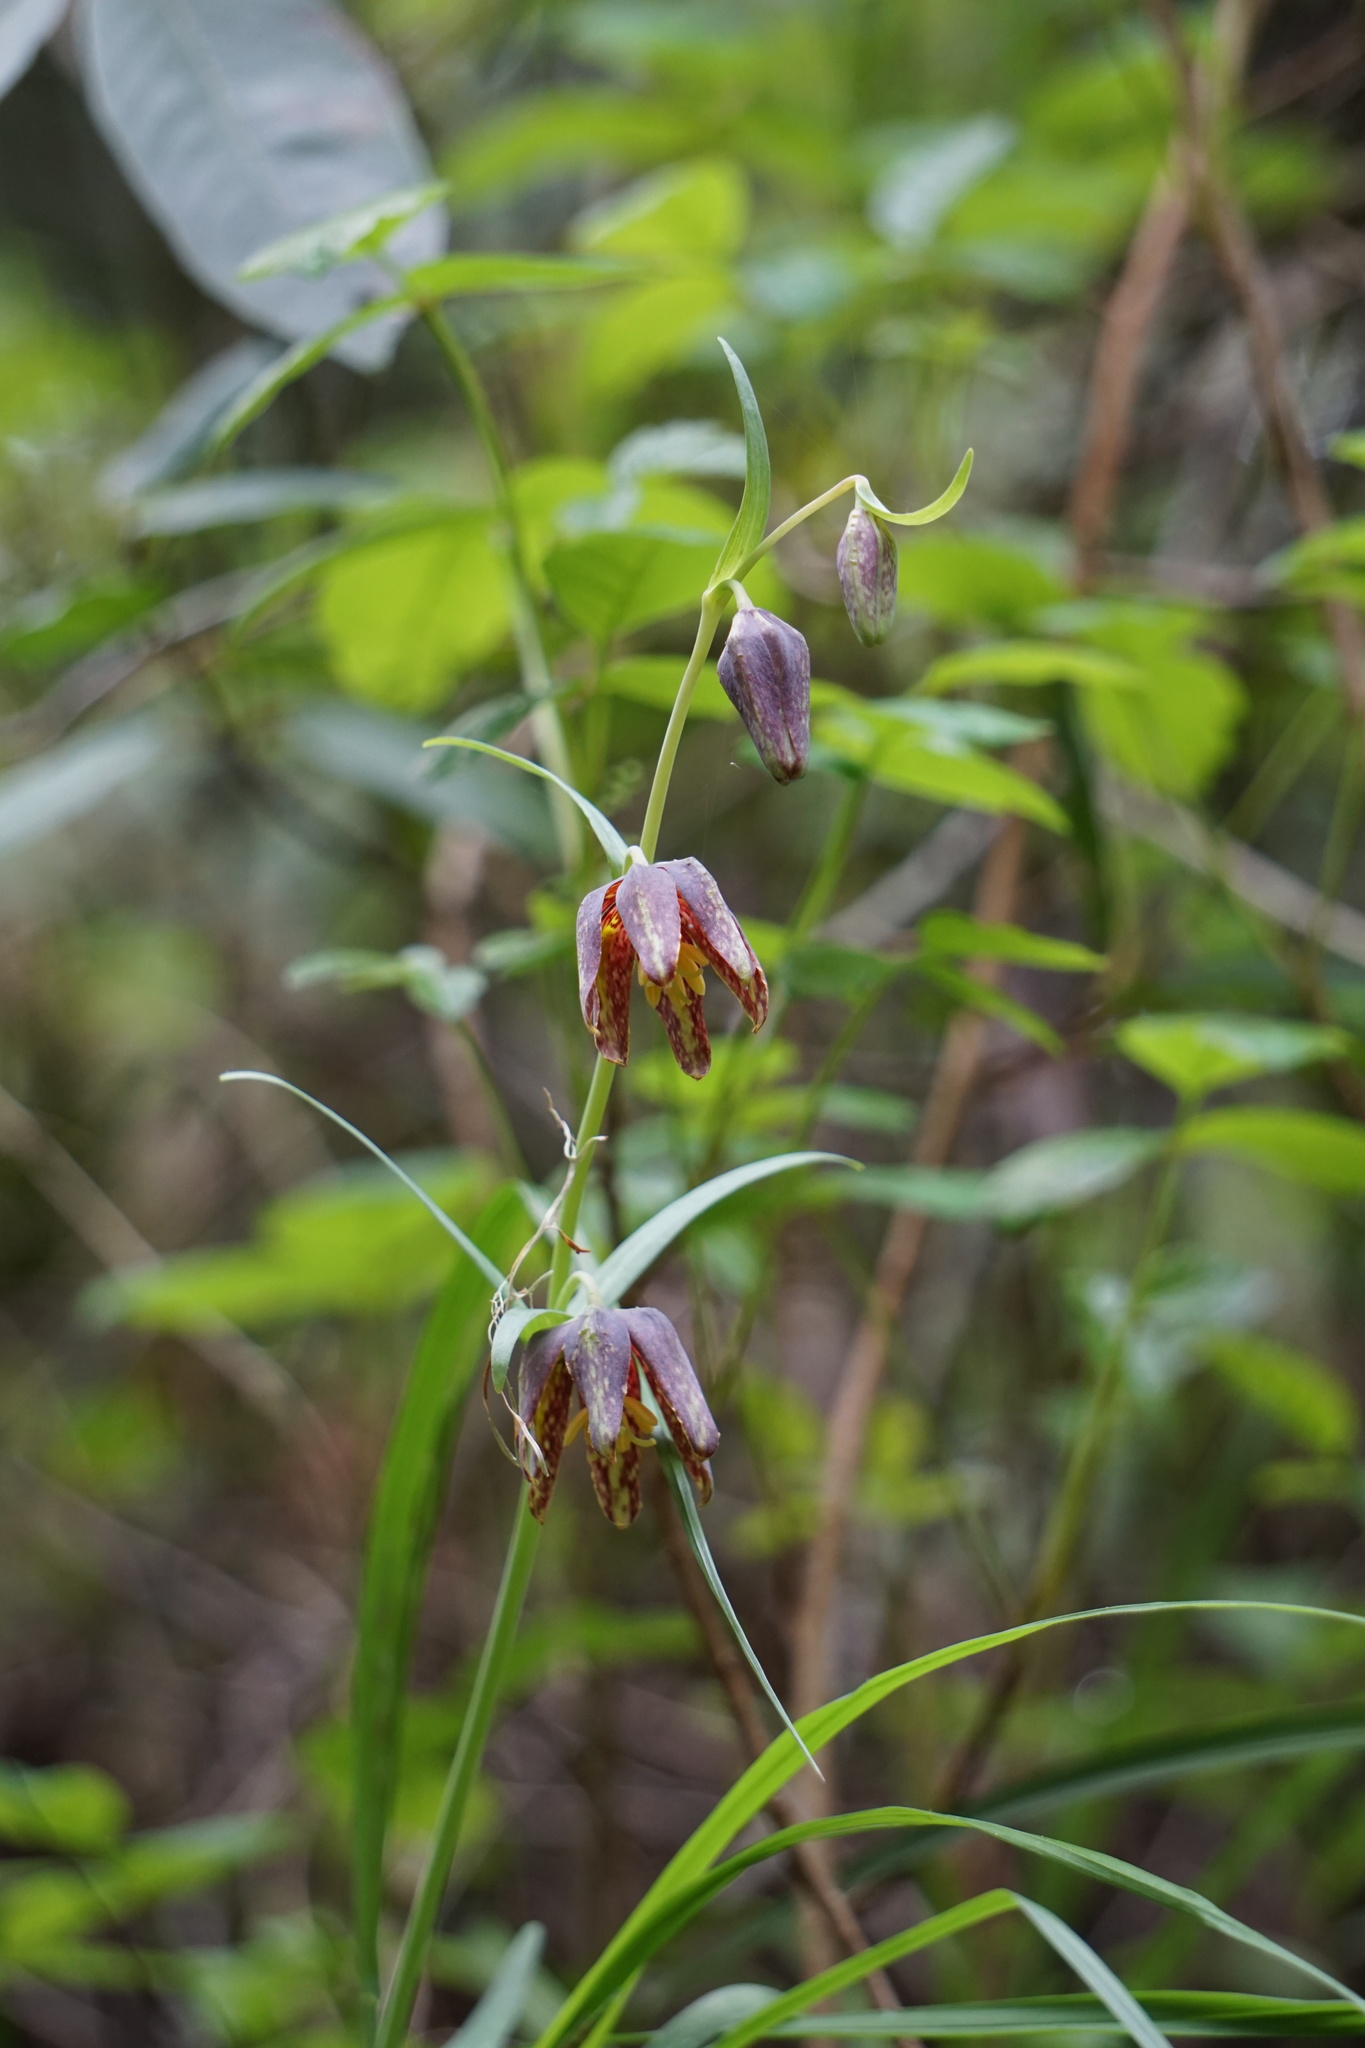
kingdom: Plantae
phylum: Tracheophyta
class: Liliopsida
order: Liliales
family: Liliaceae
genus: Fritillaria
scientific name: Fritillaria affinis
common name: Ojai fritillary
